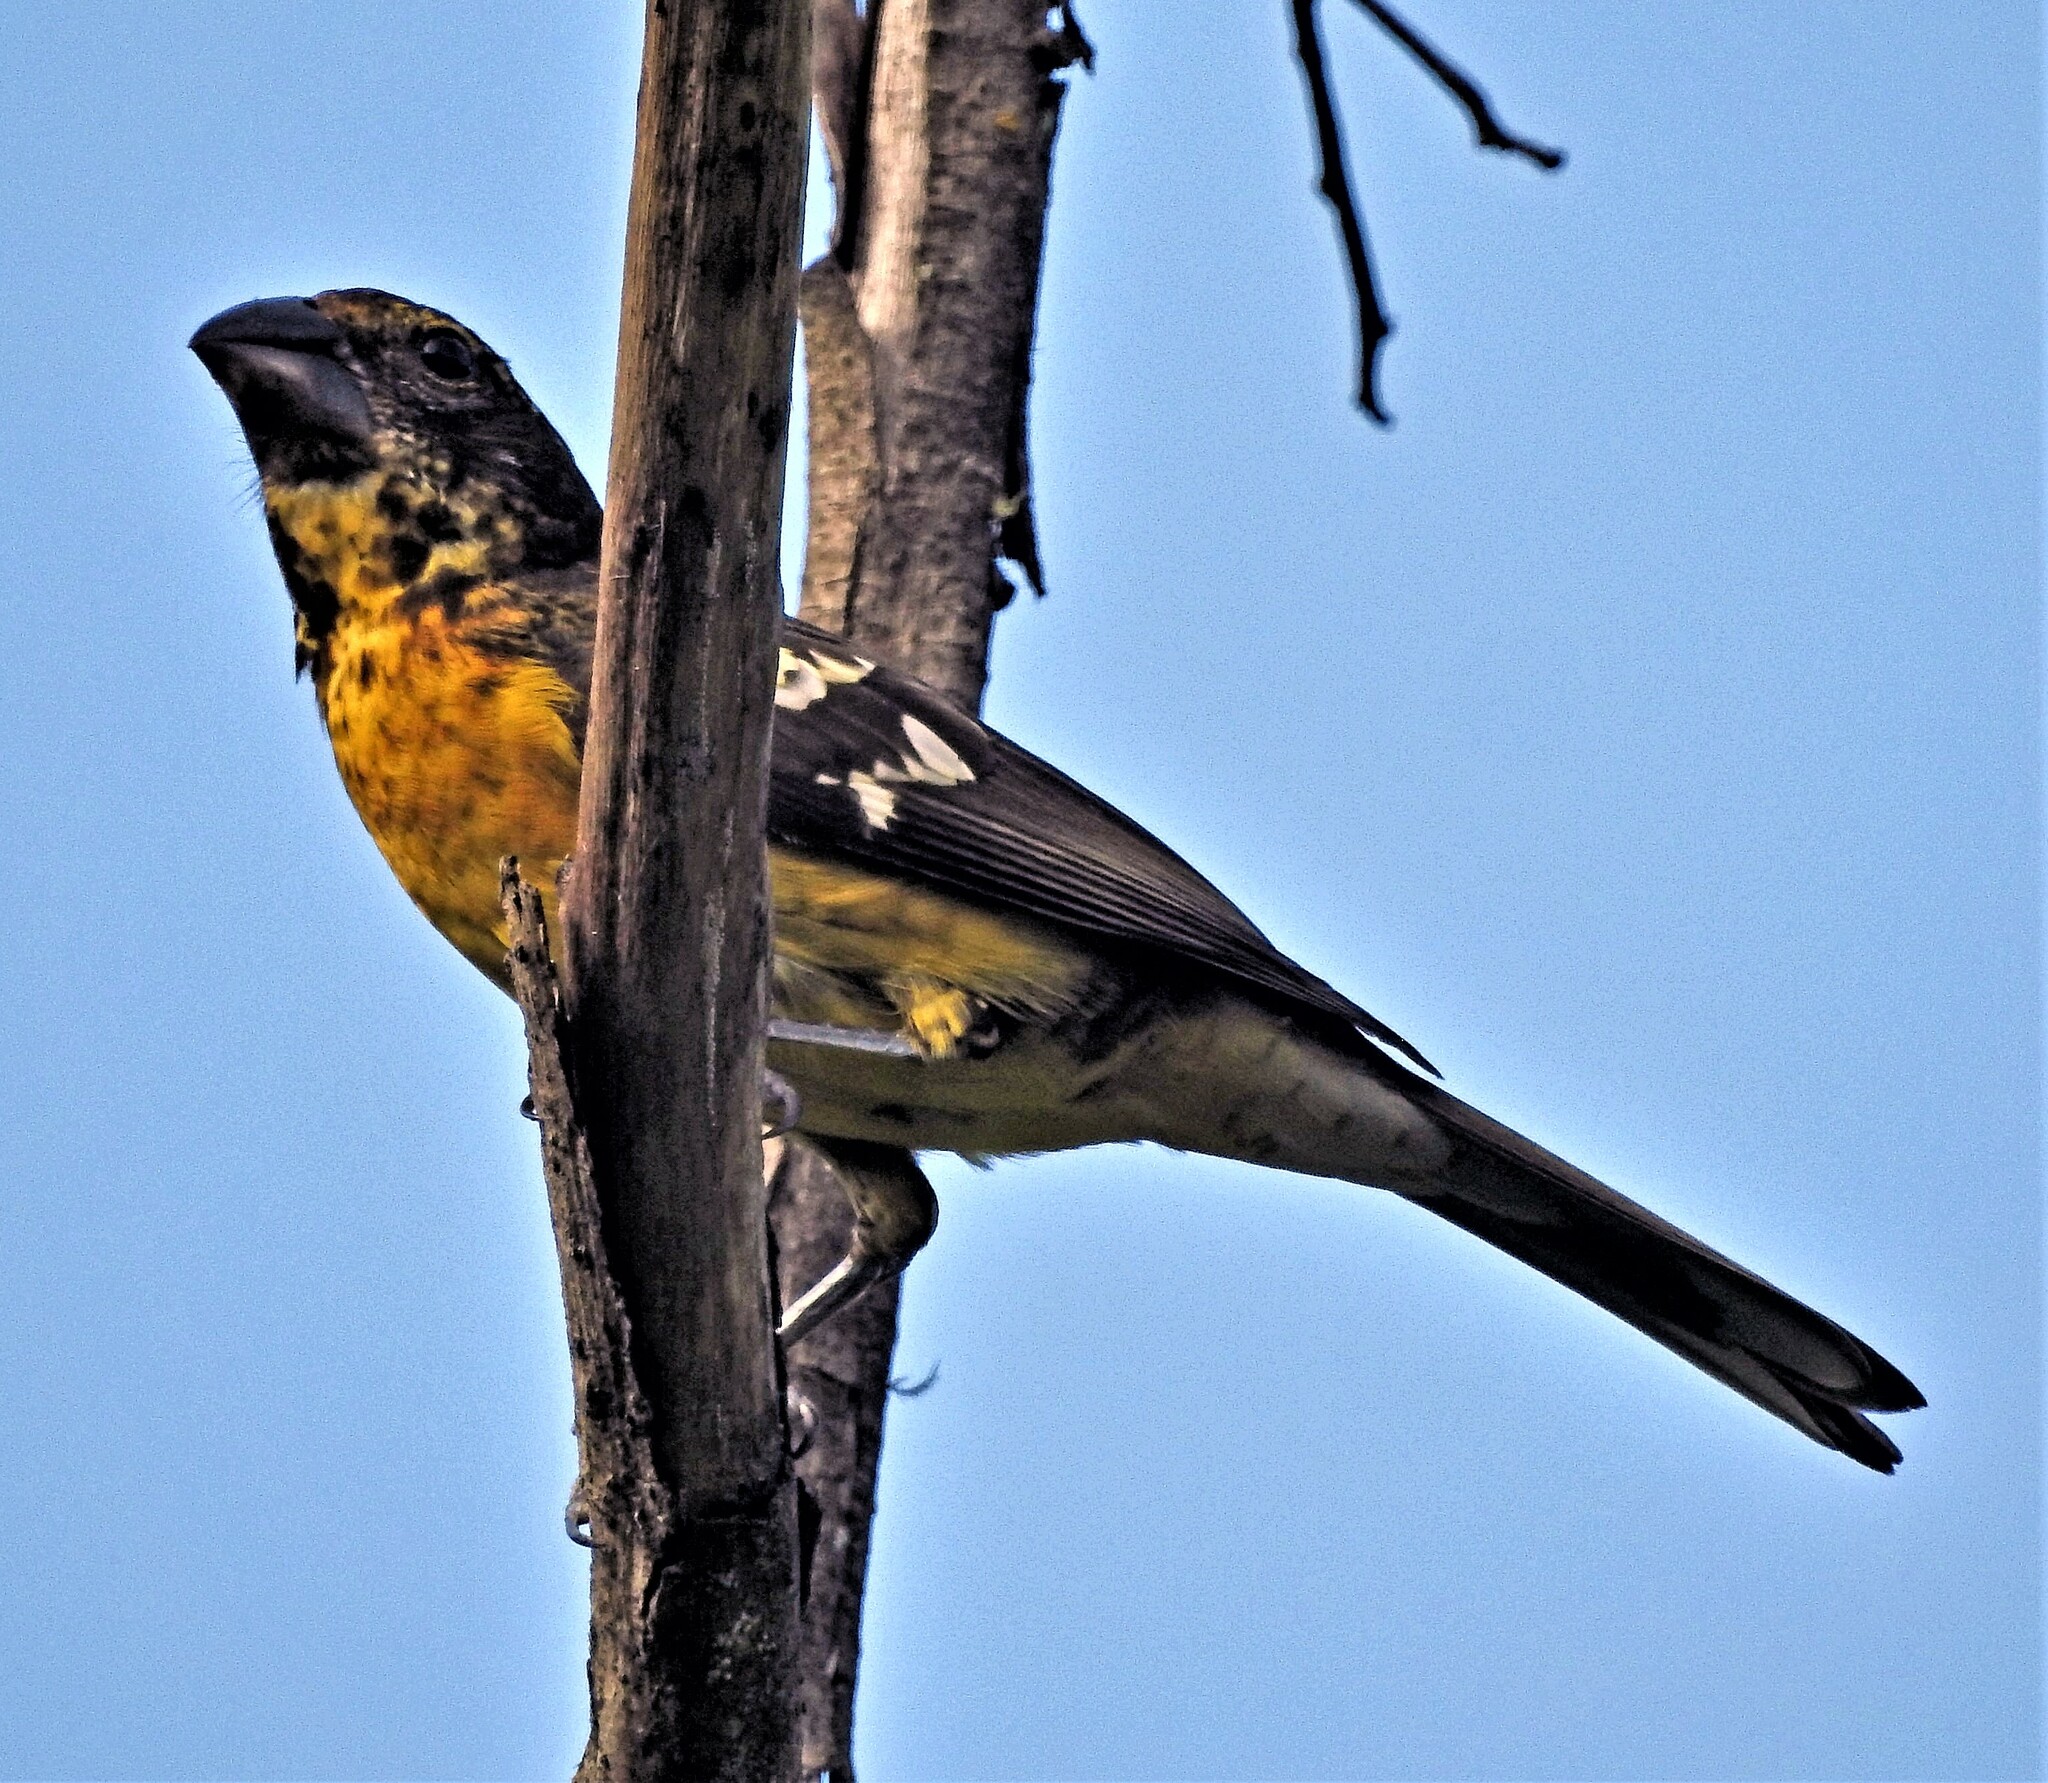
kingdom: Animalia
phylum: Chordata
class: Aves
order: Passeriformes
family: Cardinalidae
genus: Pheucticus
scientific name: Pheucticus aureoventris
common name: Black-backed grosbeak
